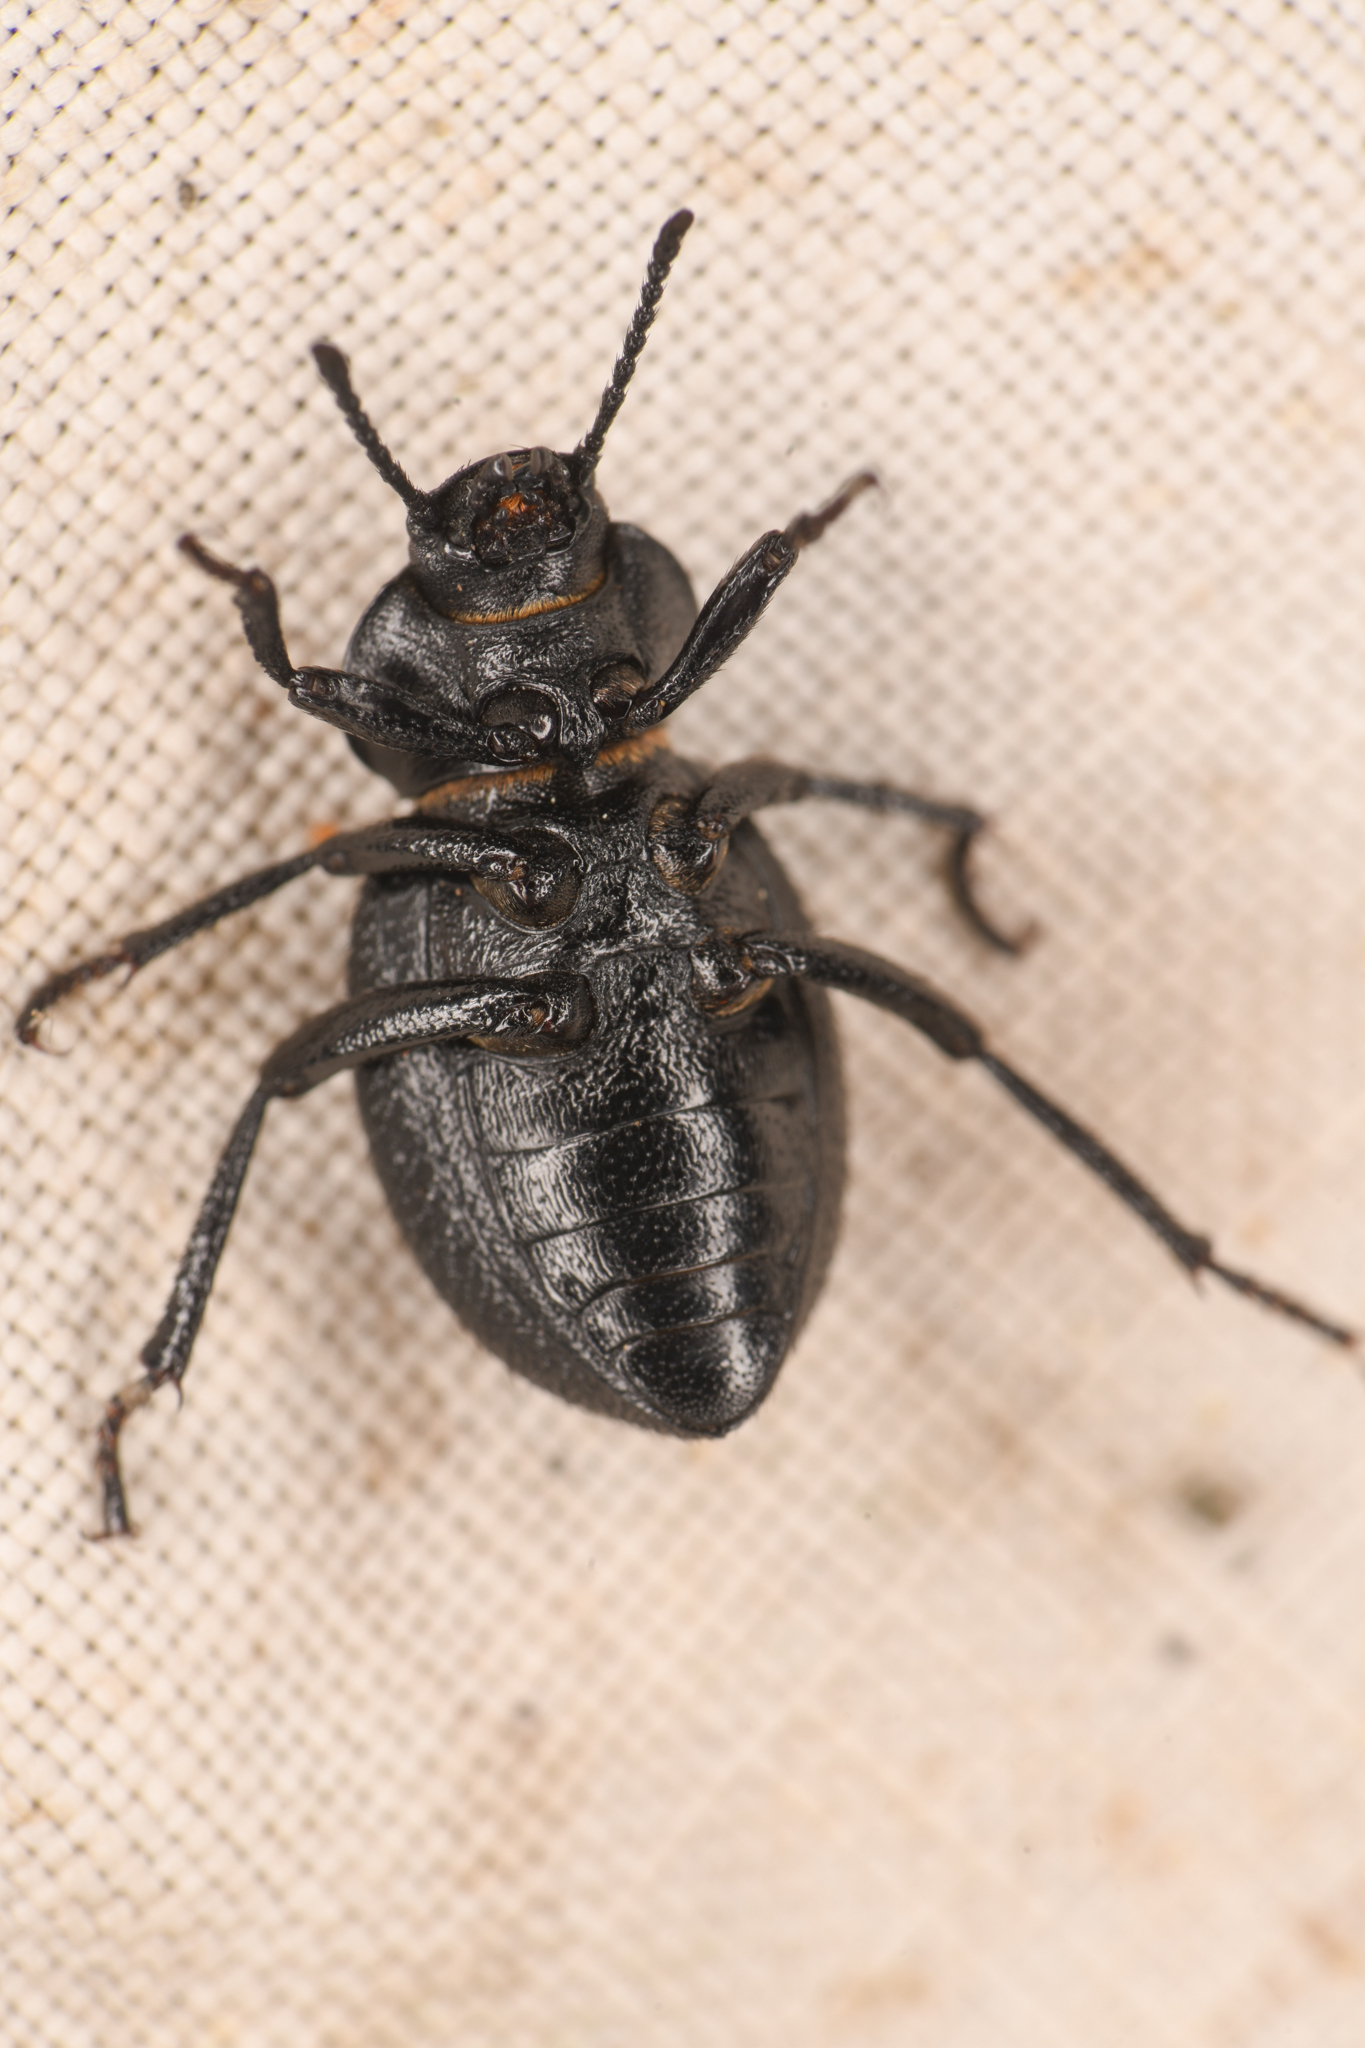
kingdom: Animalia
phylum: Arthropoda
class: Insecta
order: Coleoptera
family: Tenebrionidae
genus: Eleodes
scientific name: Eleodes scabrosa
